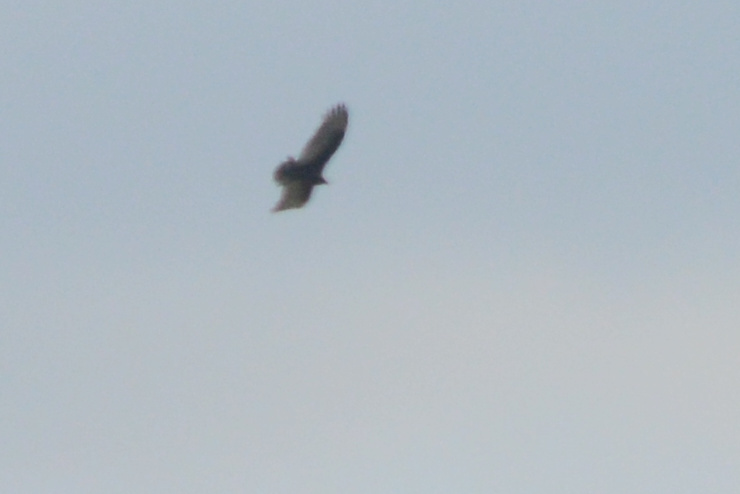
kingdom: Animalia
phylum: Chordata
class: Aves
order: Accipitriformes
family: Cathartidae
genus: Cathartes
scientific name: Cathartes aura
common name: Turkey vulture
